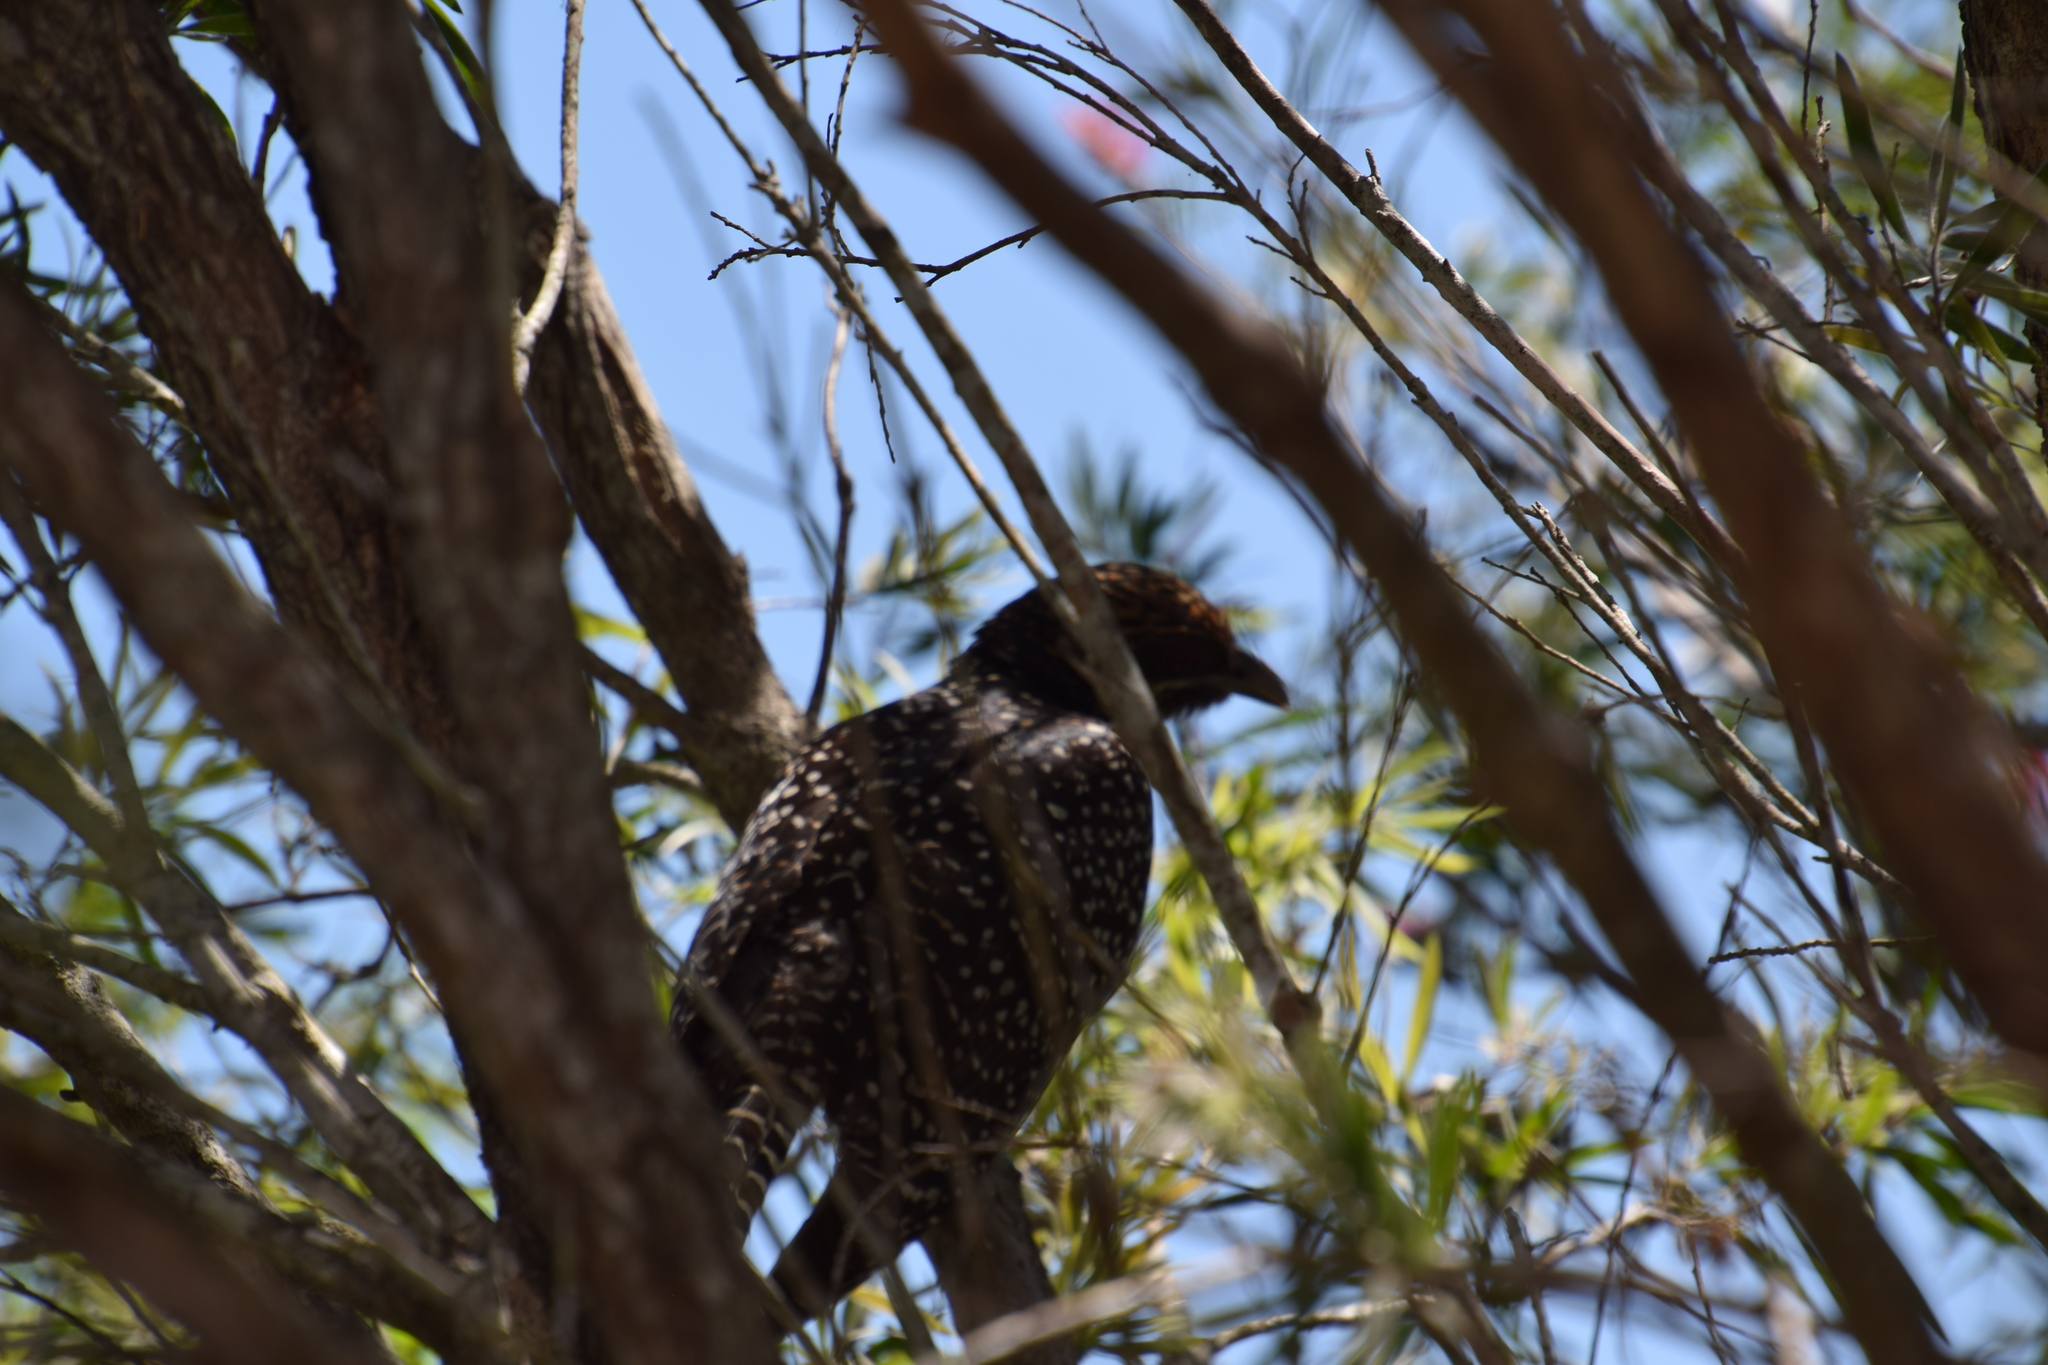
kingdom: Animalia
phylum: Chordata
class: Aves
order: Cuculiformes
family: Cuculidae
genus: Eudynamys
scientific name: Eudynamys orientalis
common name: Pacific koel
